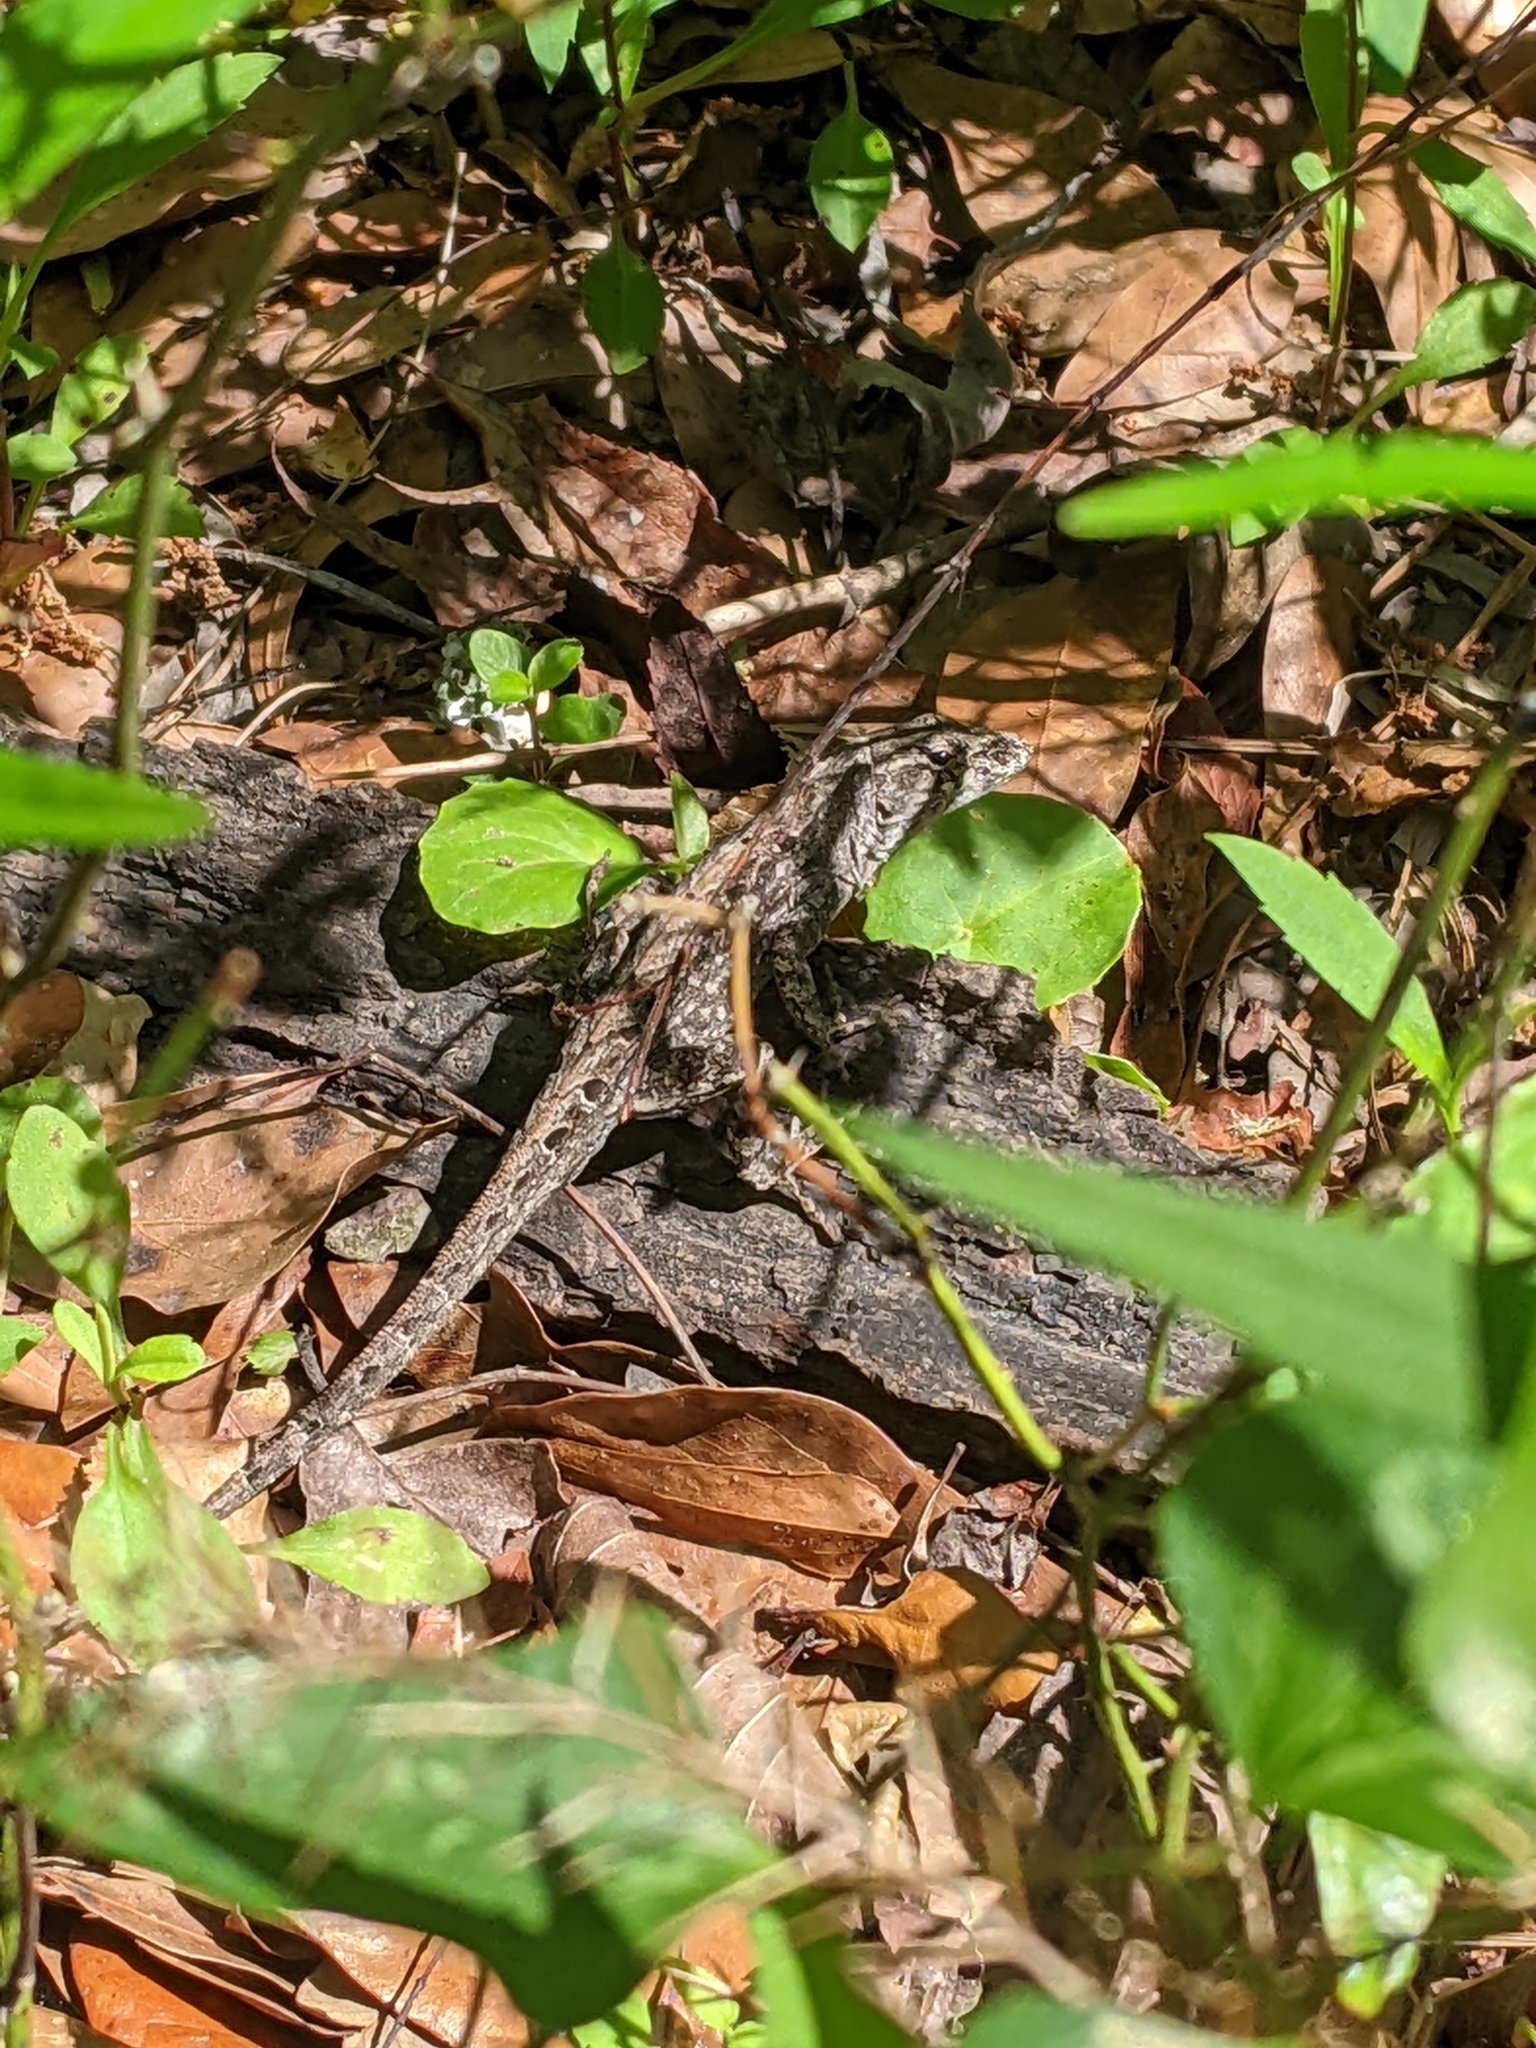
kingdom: Animalia
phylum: Chordata
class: Squamata
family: Dactyloidae
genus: Anolis
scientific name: Anolis sagrei
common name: Brown anole
